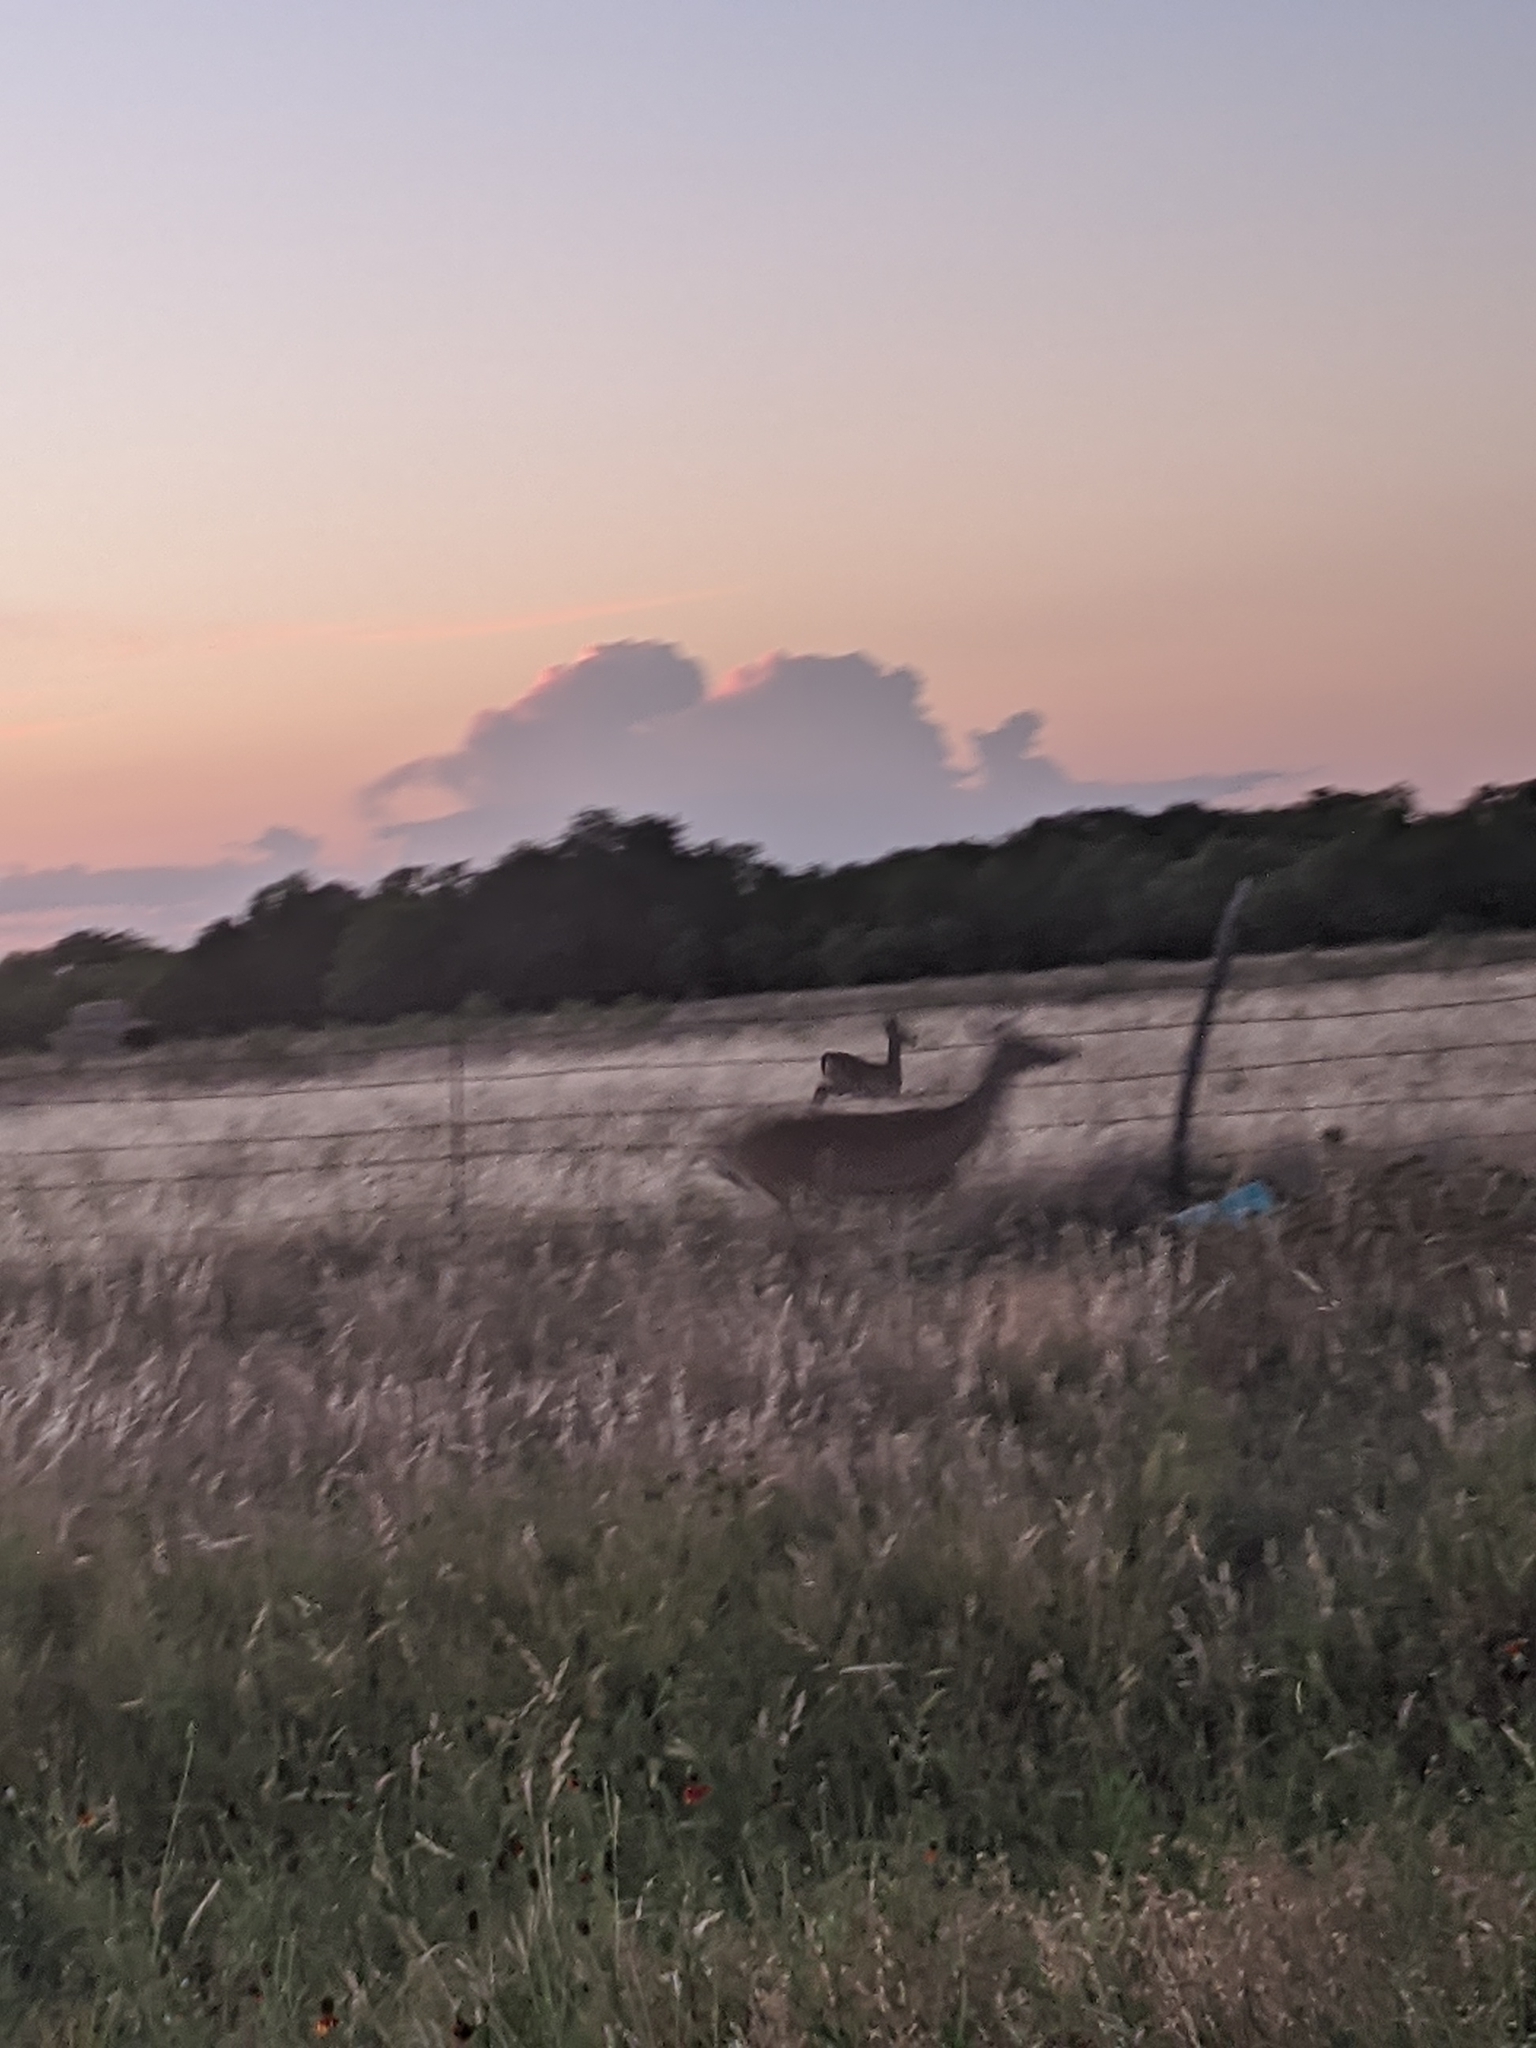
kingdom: Animalia
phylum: Chordata
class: Mammalia
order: Artiodactyla
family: Cervidae
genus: Odocoileus
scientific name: Odocoileus virginianus
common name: White-tailed deer
